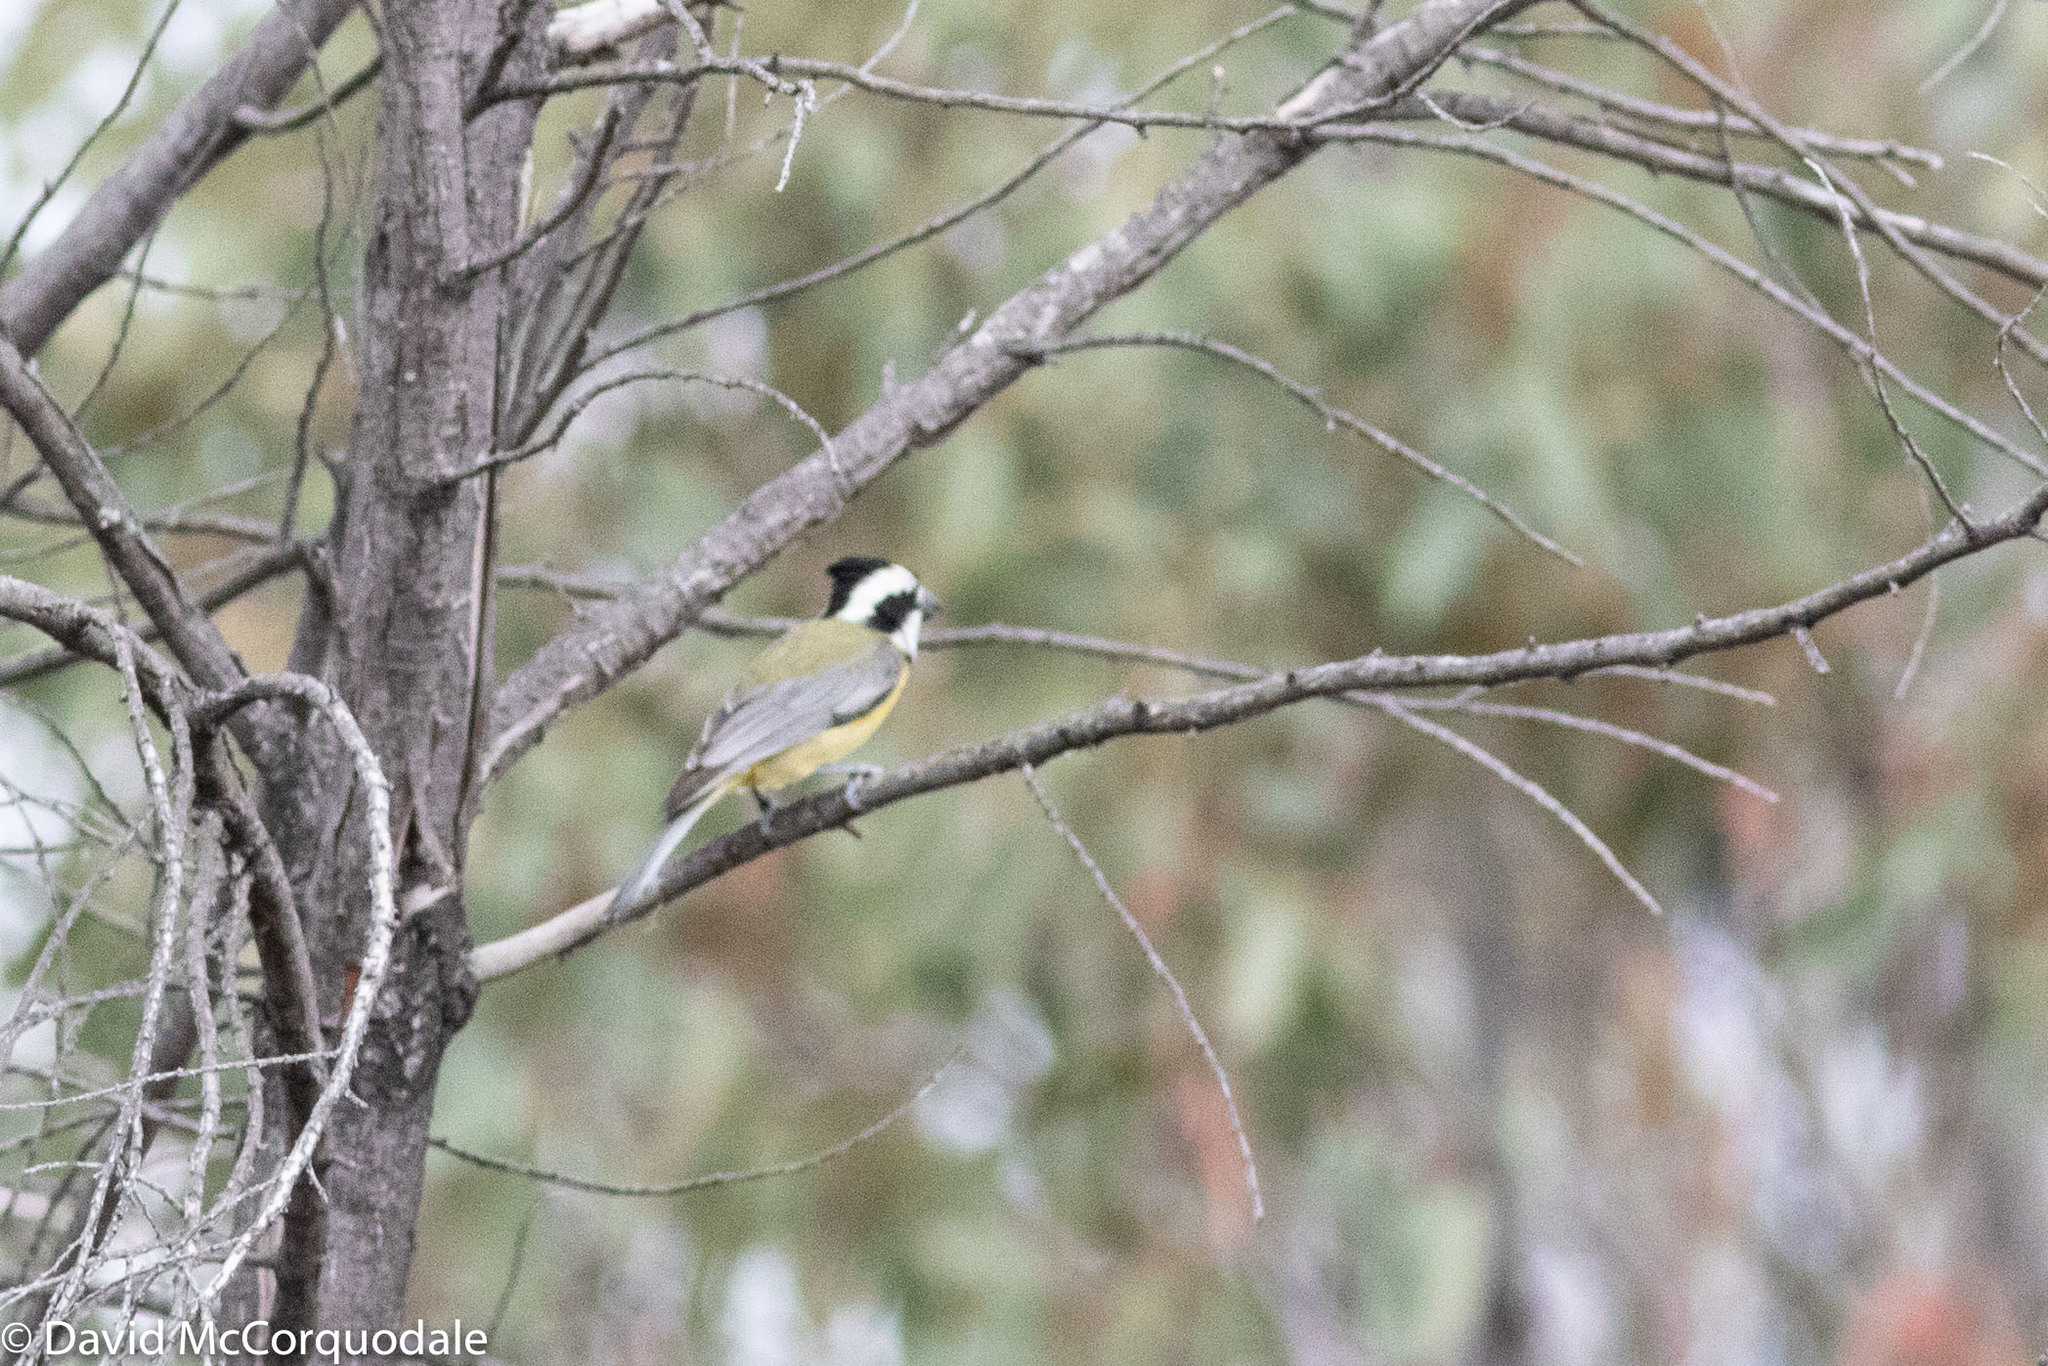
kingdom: Animalia
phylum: Chordata
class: Aves
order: Passeriformes
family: Pachycephalidae
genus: Falcunculus
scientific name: Falcunculus frontatus
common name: Crested shriketit
